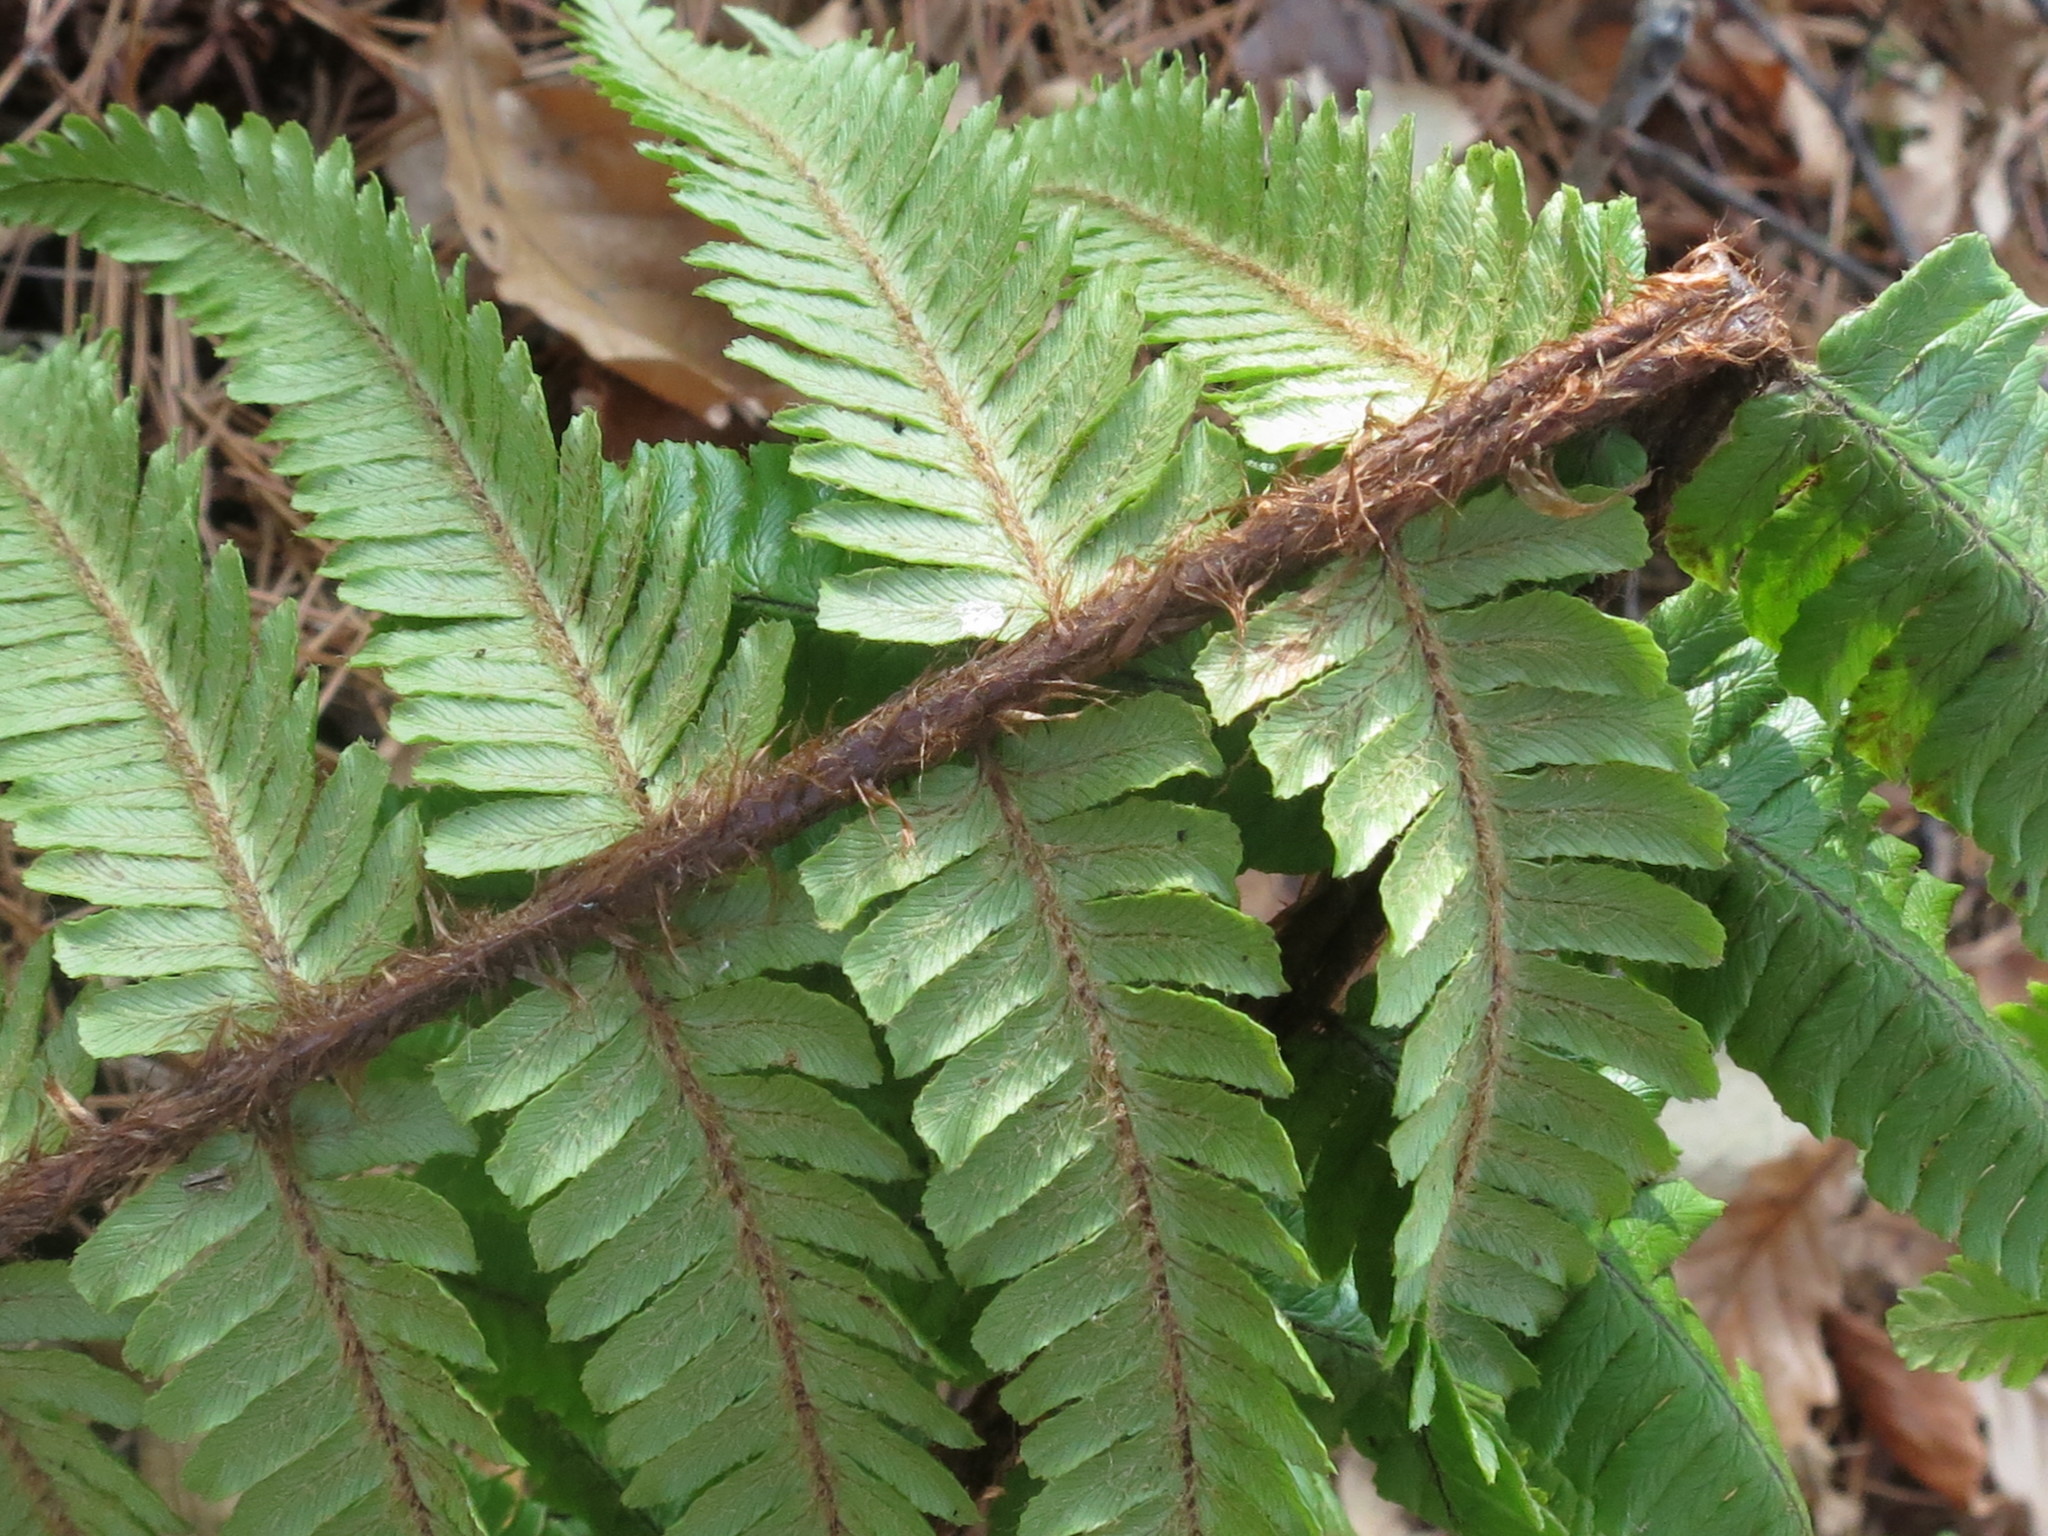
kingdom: Plantae
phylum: Tracheophyta
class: Polypodiopsida
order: Polypodiales
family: Dryopteridaceae
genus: Dryopteris
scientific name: Dryopteris crassirhizoma
